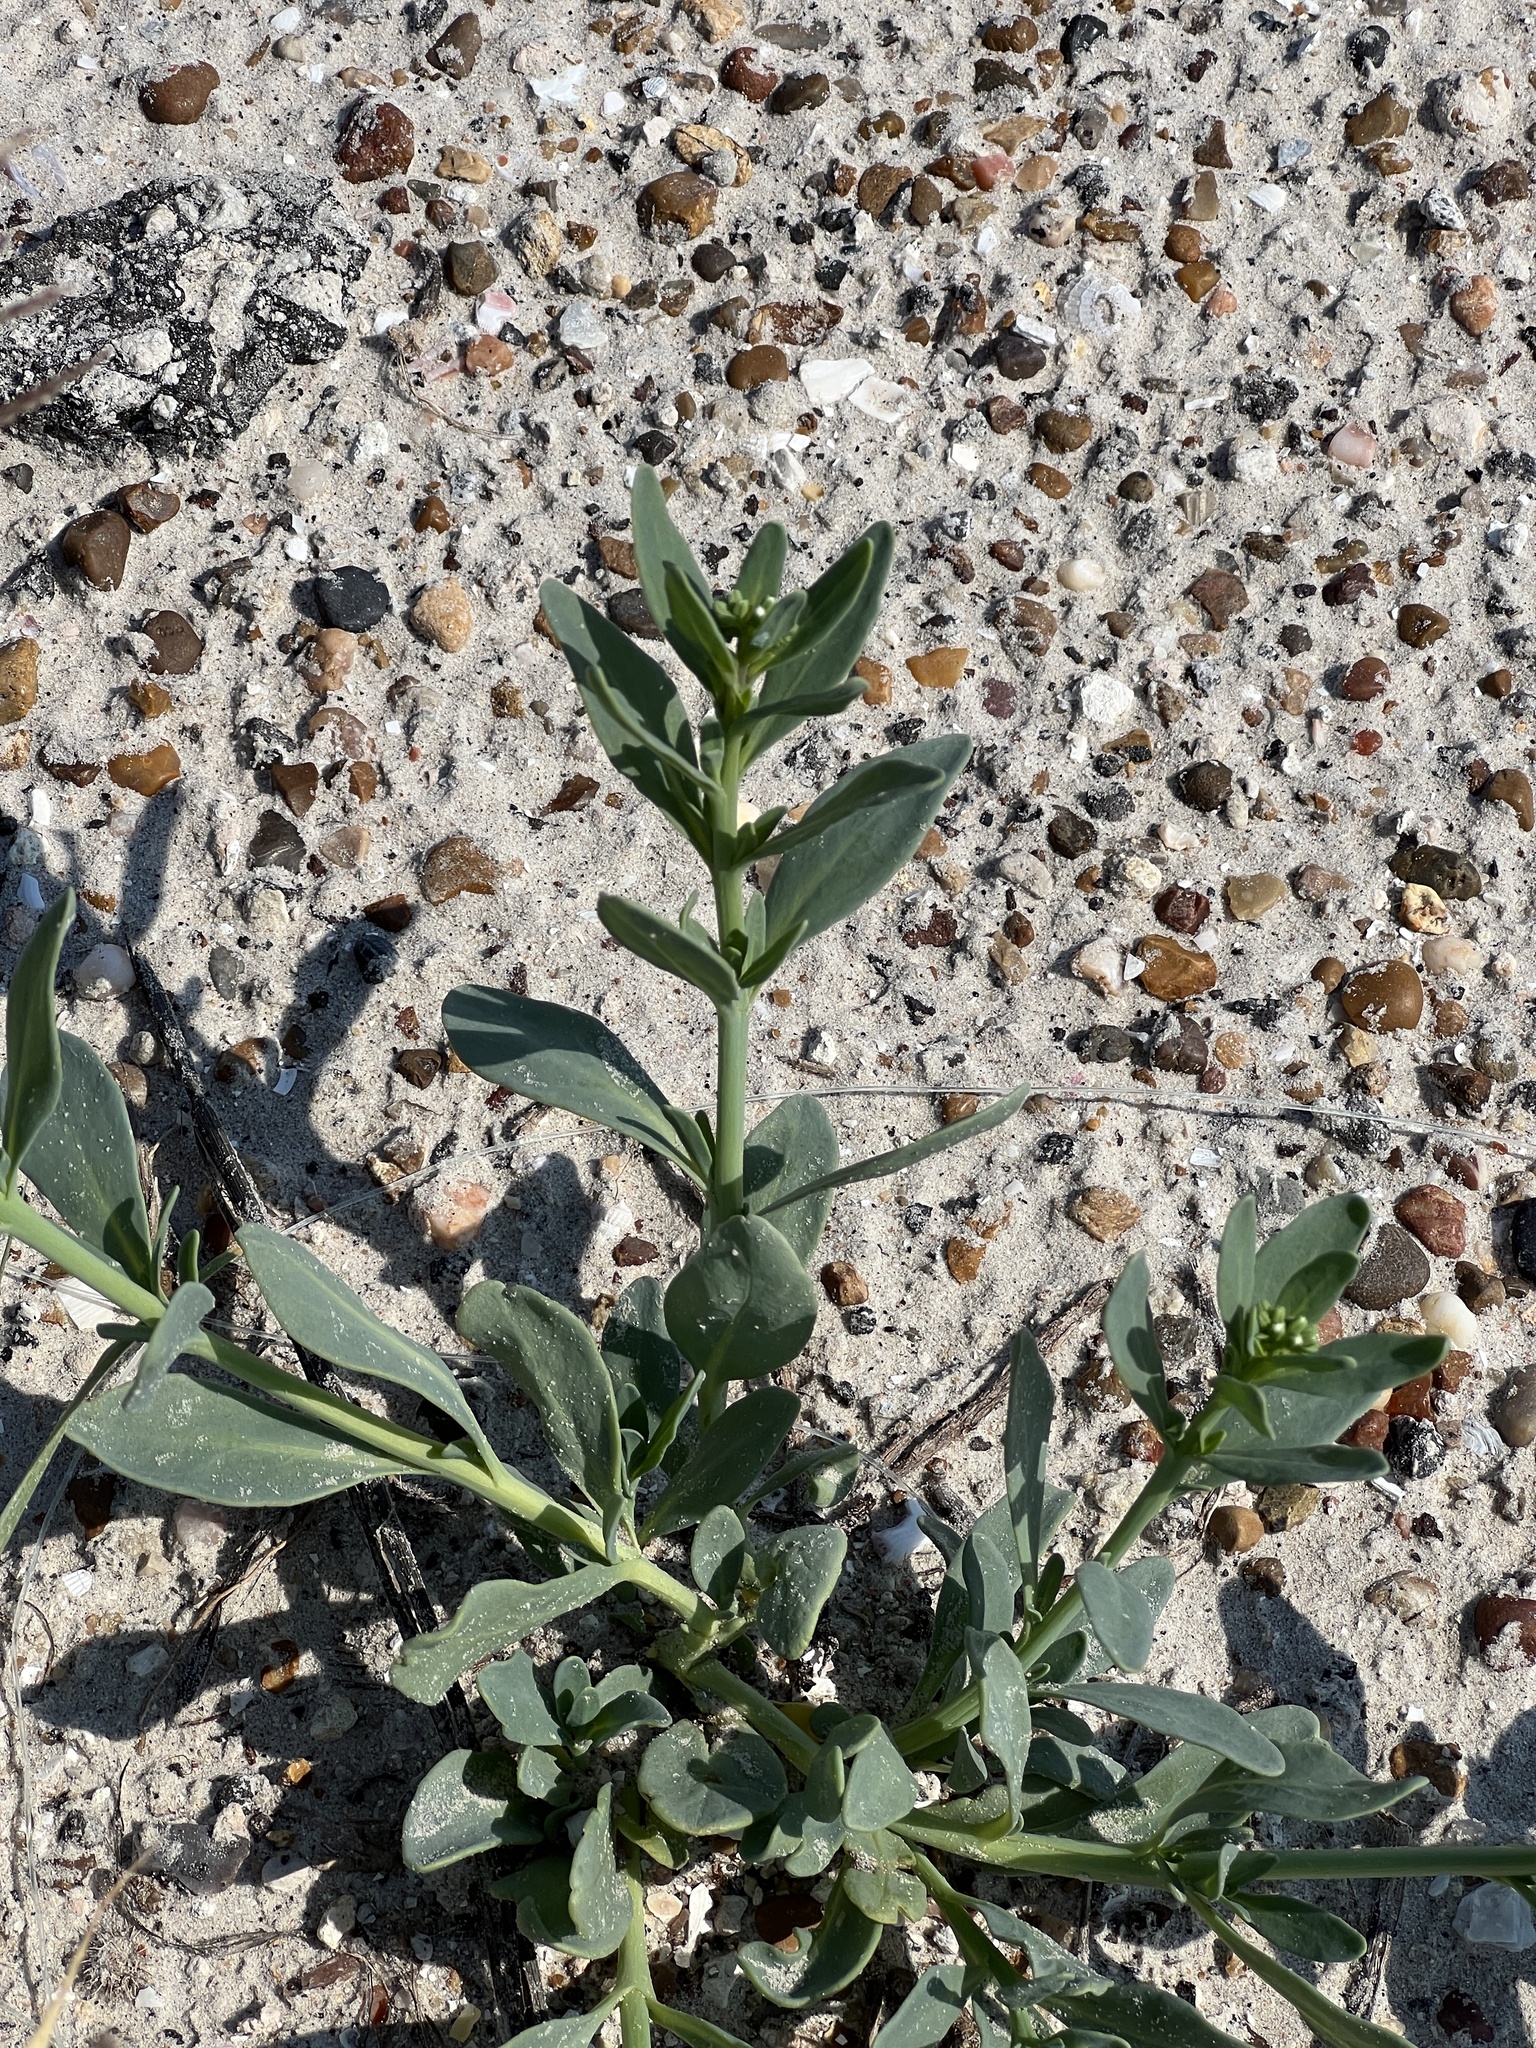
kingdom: Plantae
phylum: Tracheophyta
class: Magnoliopsida
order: Boraginales
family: Heliotropiaceae
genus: Heliotropium
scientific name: Heliotropium curassavicum
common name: Seaside heliotrope
